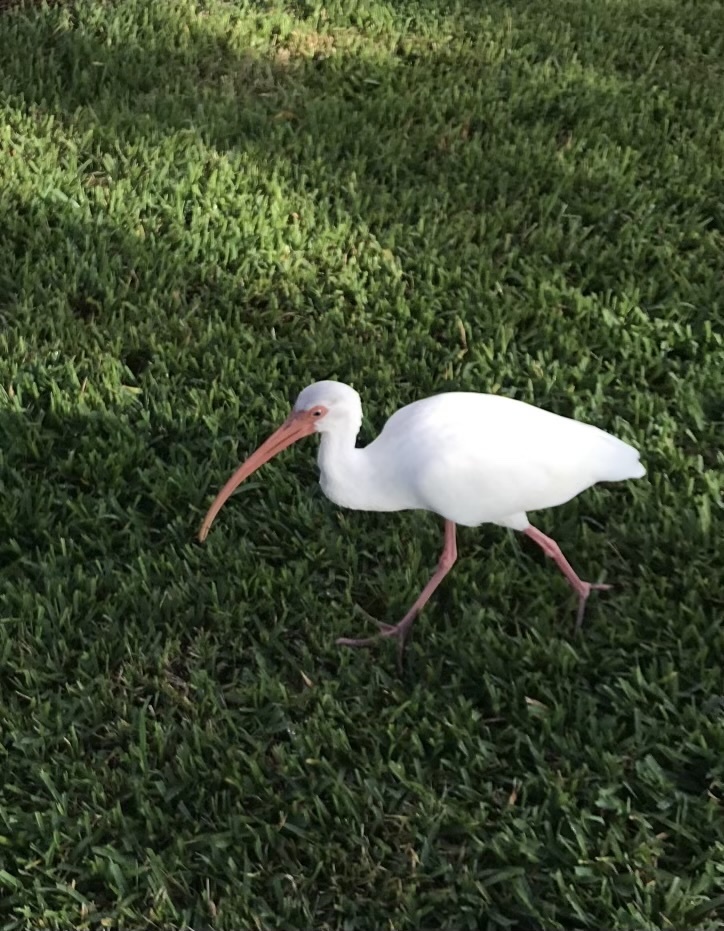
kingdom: Animalia
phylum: Chordata
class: Aves
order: Pelecaniformes
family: Threskiornithidae
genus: Eudocimus
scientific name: Eudocimus albus
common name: White ibis
